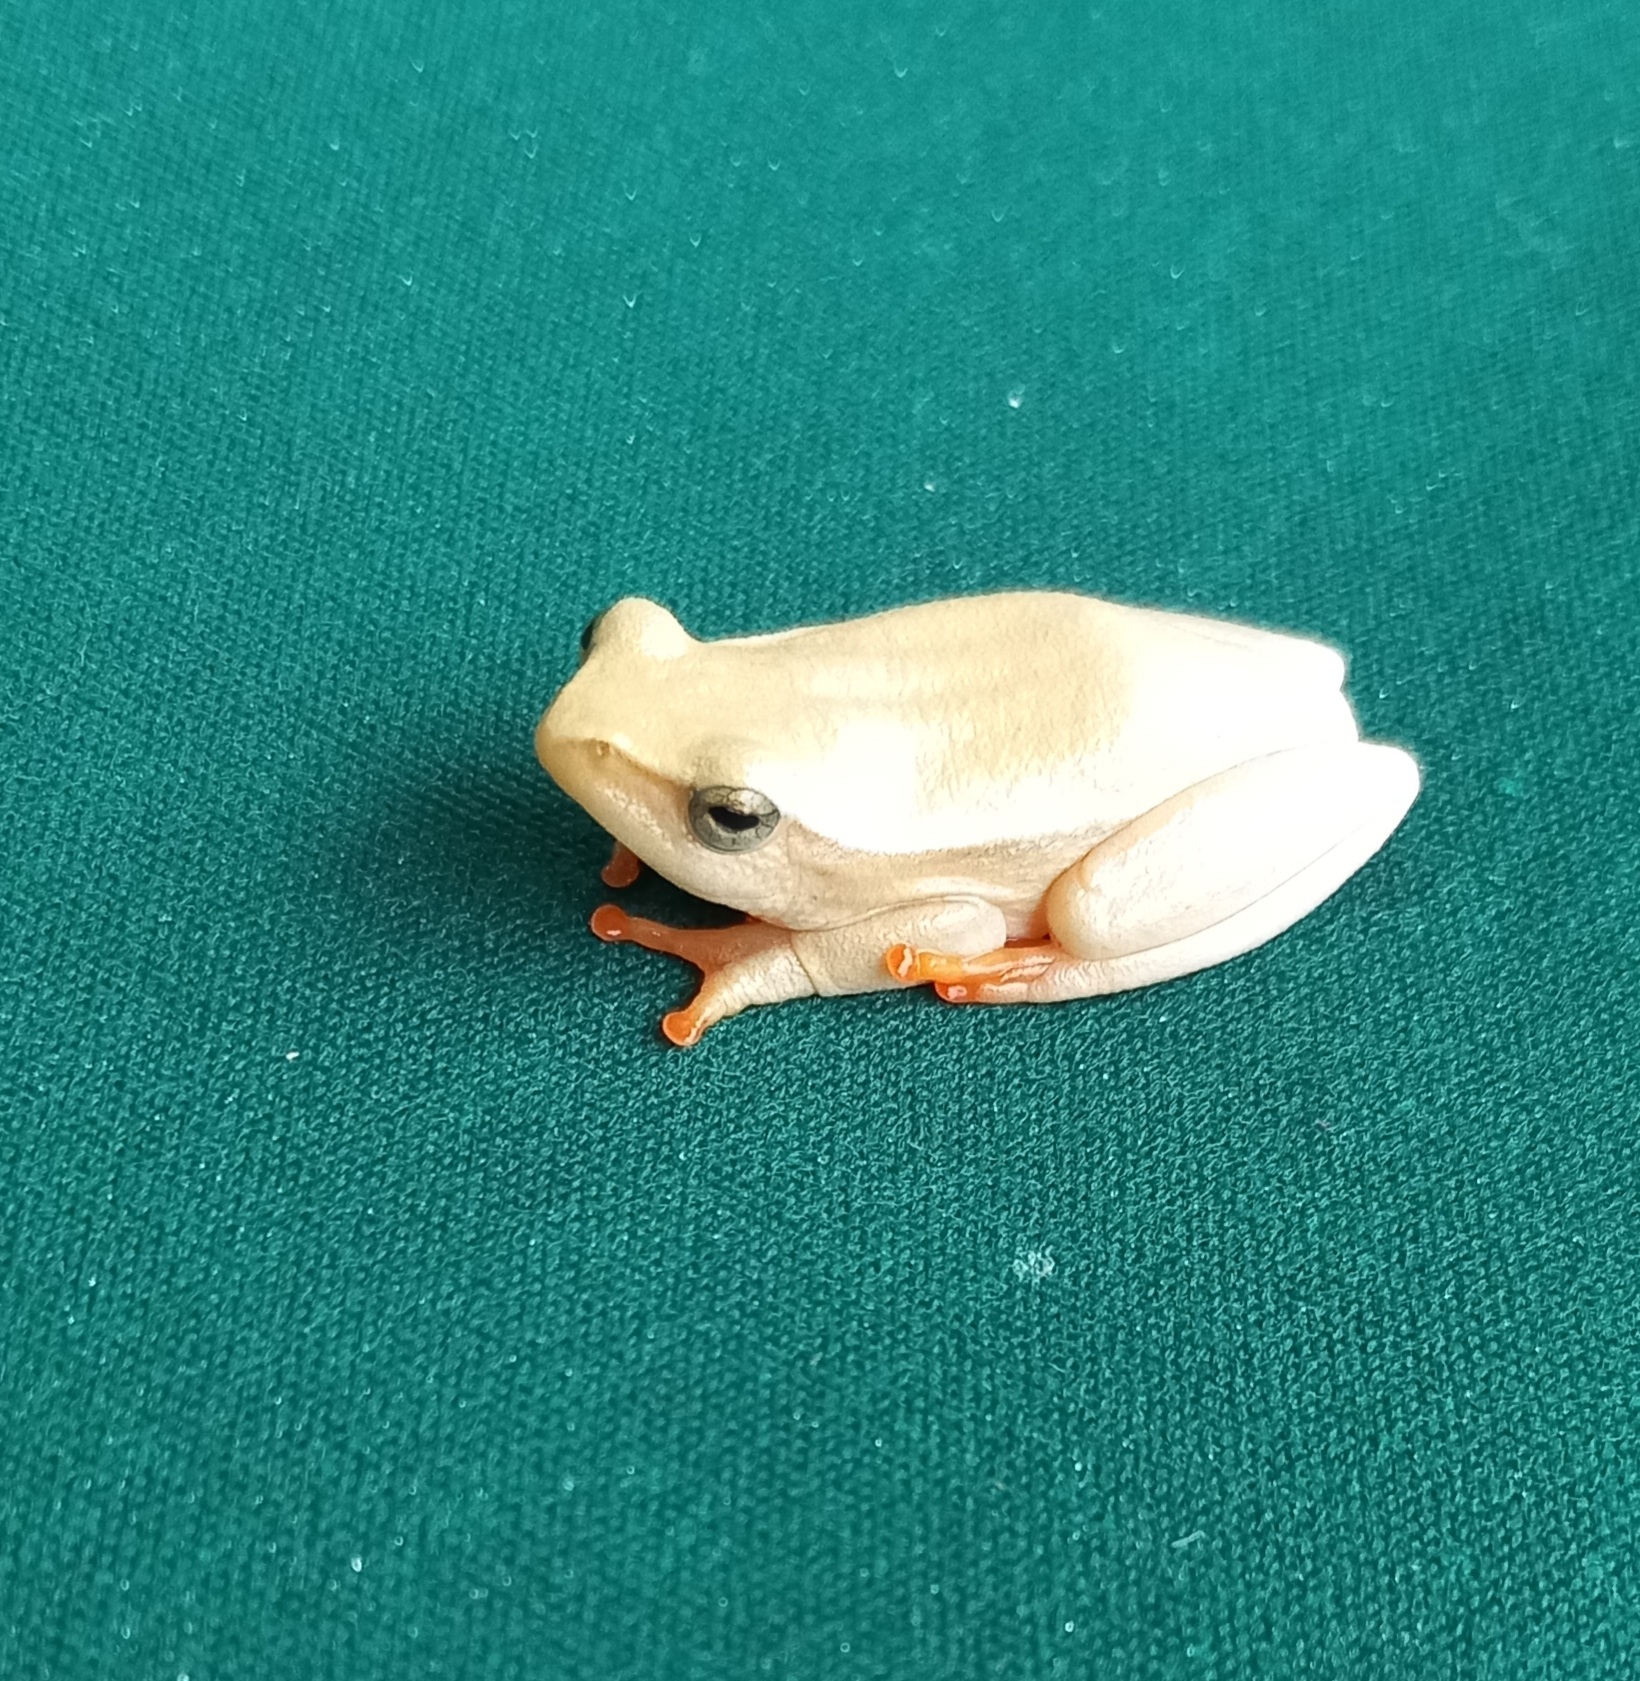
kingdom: Animalia
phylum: Chordata
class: Amphibia
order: Anura
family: Hyperoliidae
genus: Hyperolius
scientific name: Hyperolius horstockii
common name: Arum lily frog
